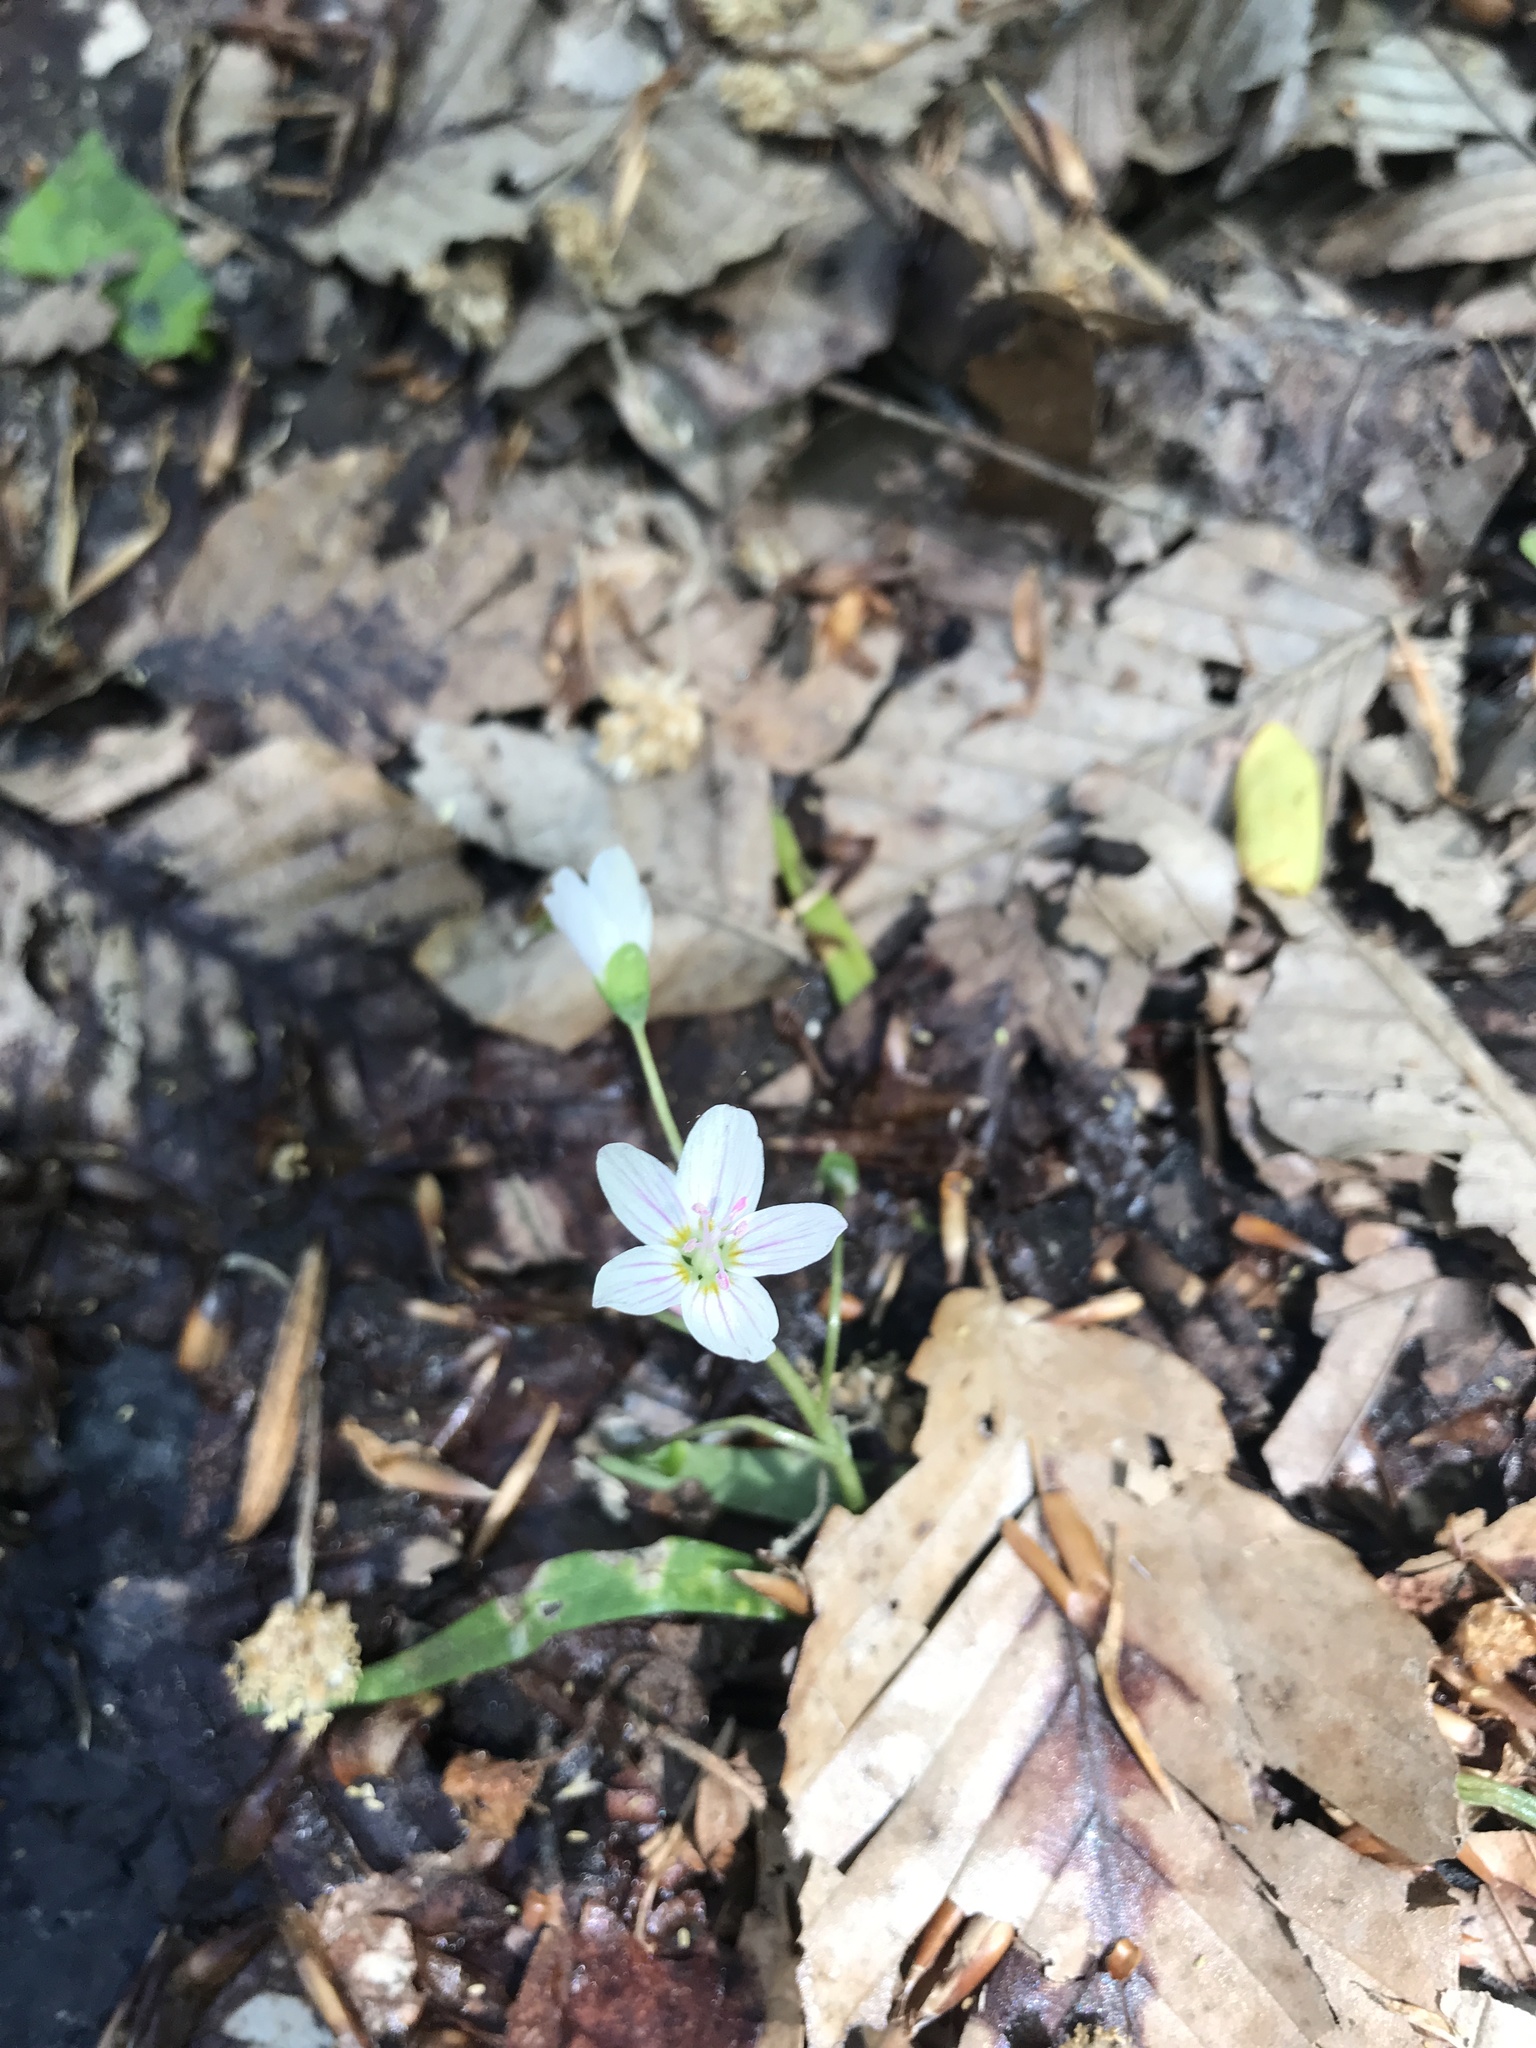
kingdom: Plantae
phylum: Tracheophyta
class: Magnoliopsida
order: Caryophyllales
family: Montiaceae
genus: Claytonia
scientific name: Claytonia virginica
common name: Virginia springbeauty
